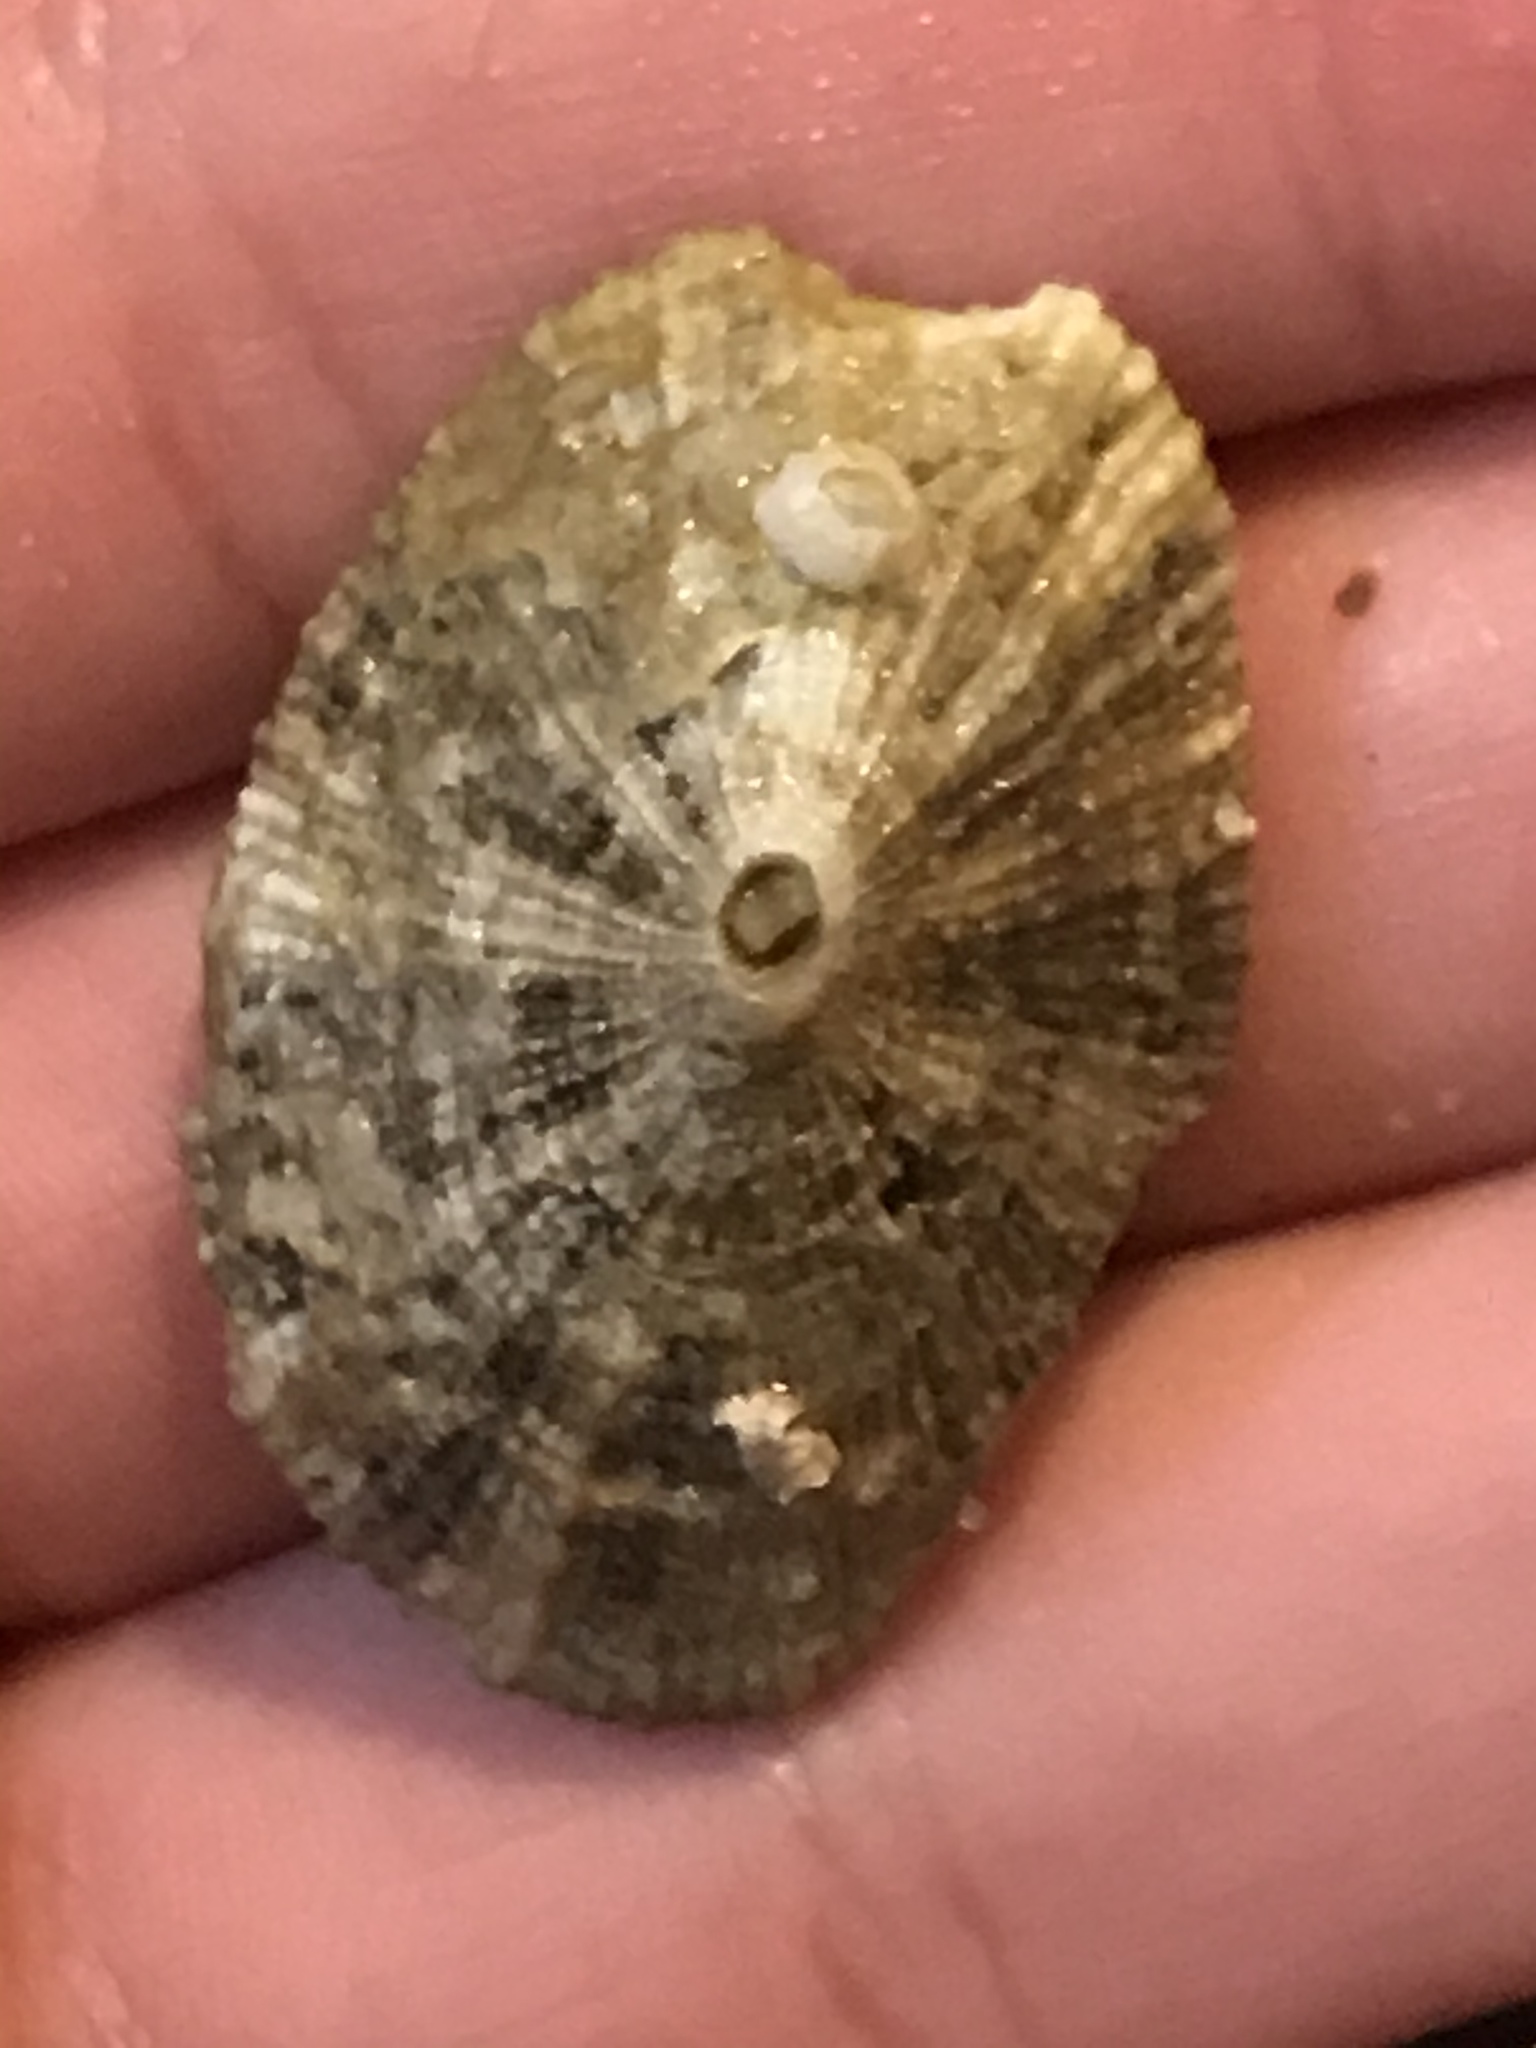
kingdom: Animalia
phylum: Mollusca
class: Gastropoda
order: Lepetellida
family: Fissurellidae
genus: Diodora
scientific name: Diodora aspera
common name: Rough keyhole limpet
